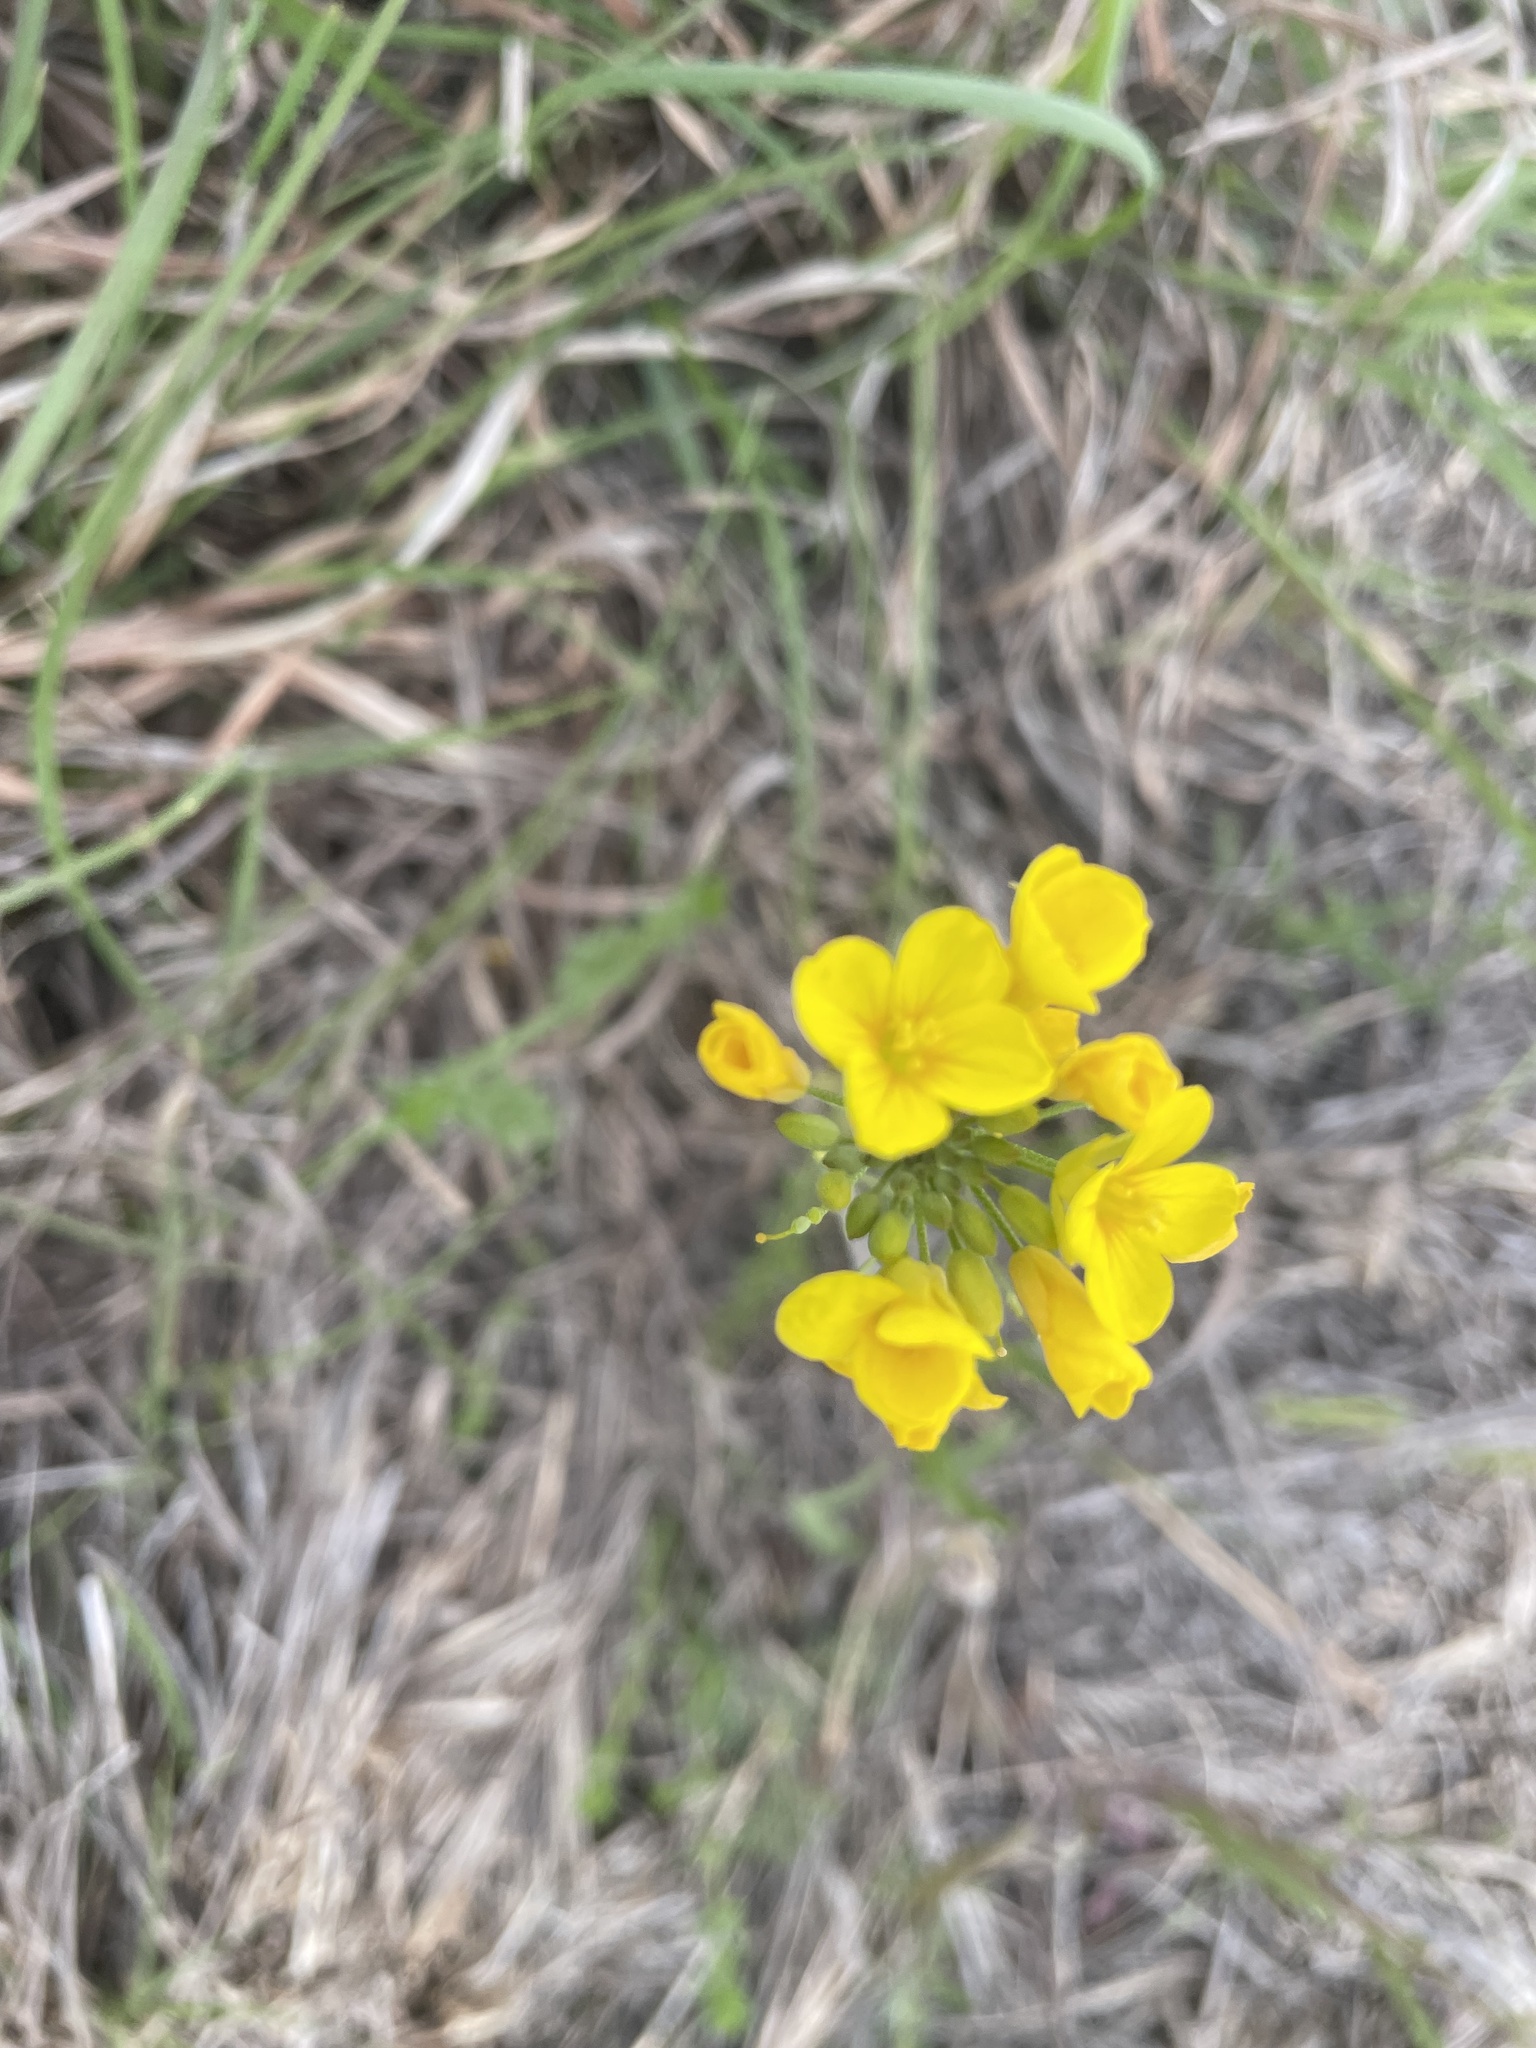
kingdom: Plantae
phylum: Tracheophyta
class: Magnoliopsida
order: Brassicales
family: Brassicaceae
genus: Physaria
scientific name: Physaria gracilis
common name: Spreading bladderpod
